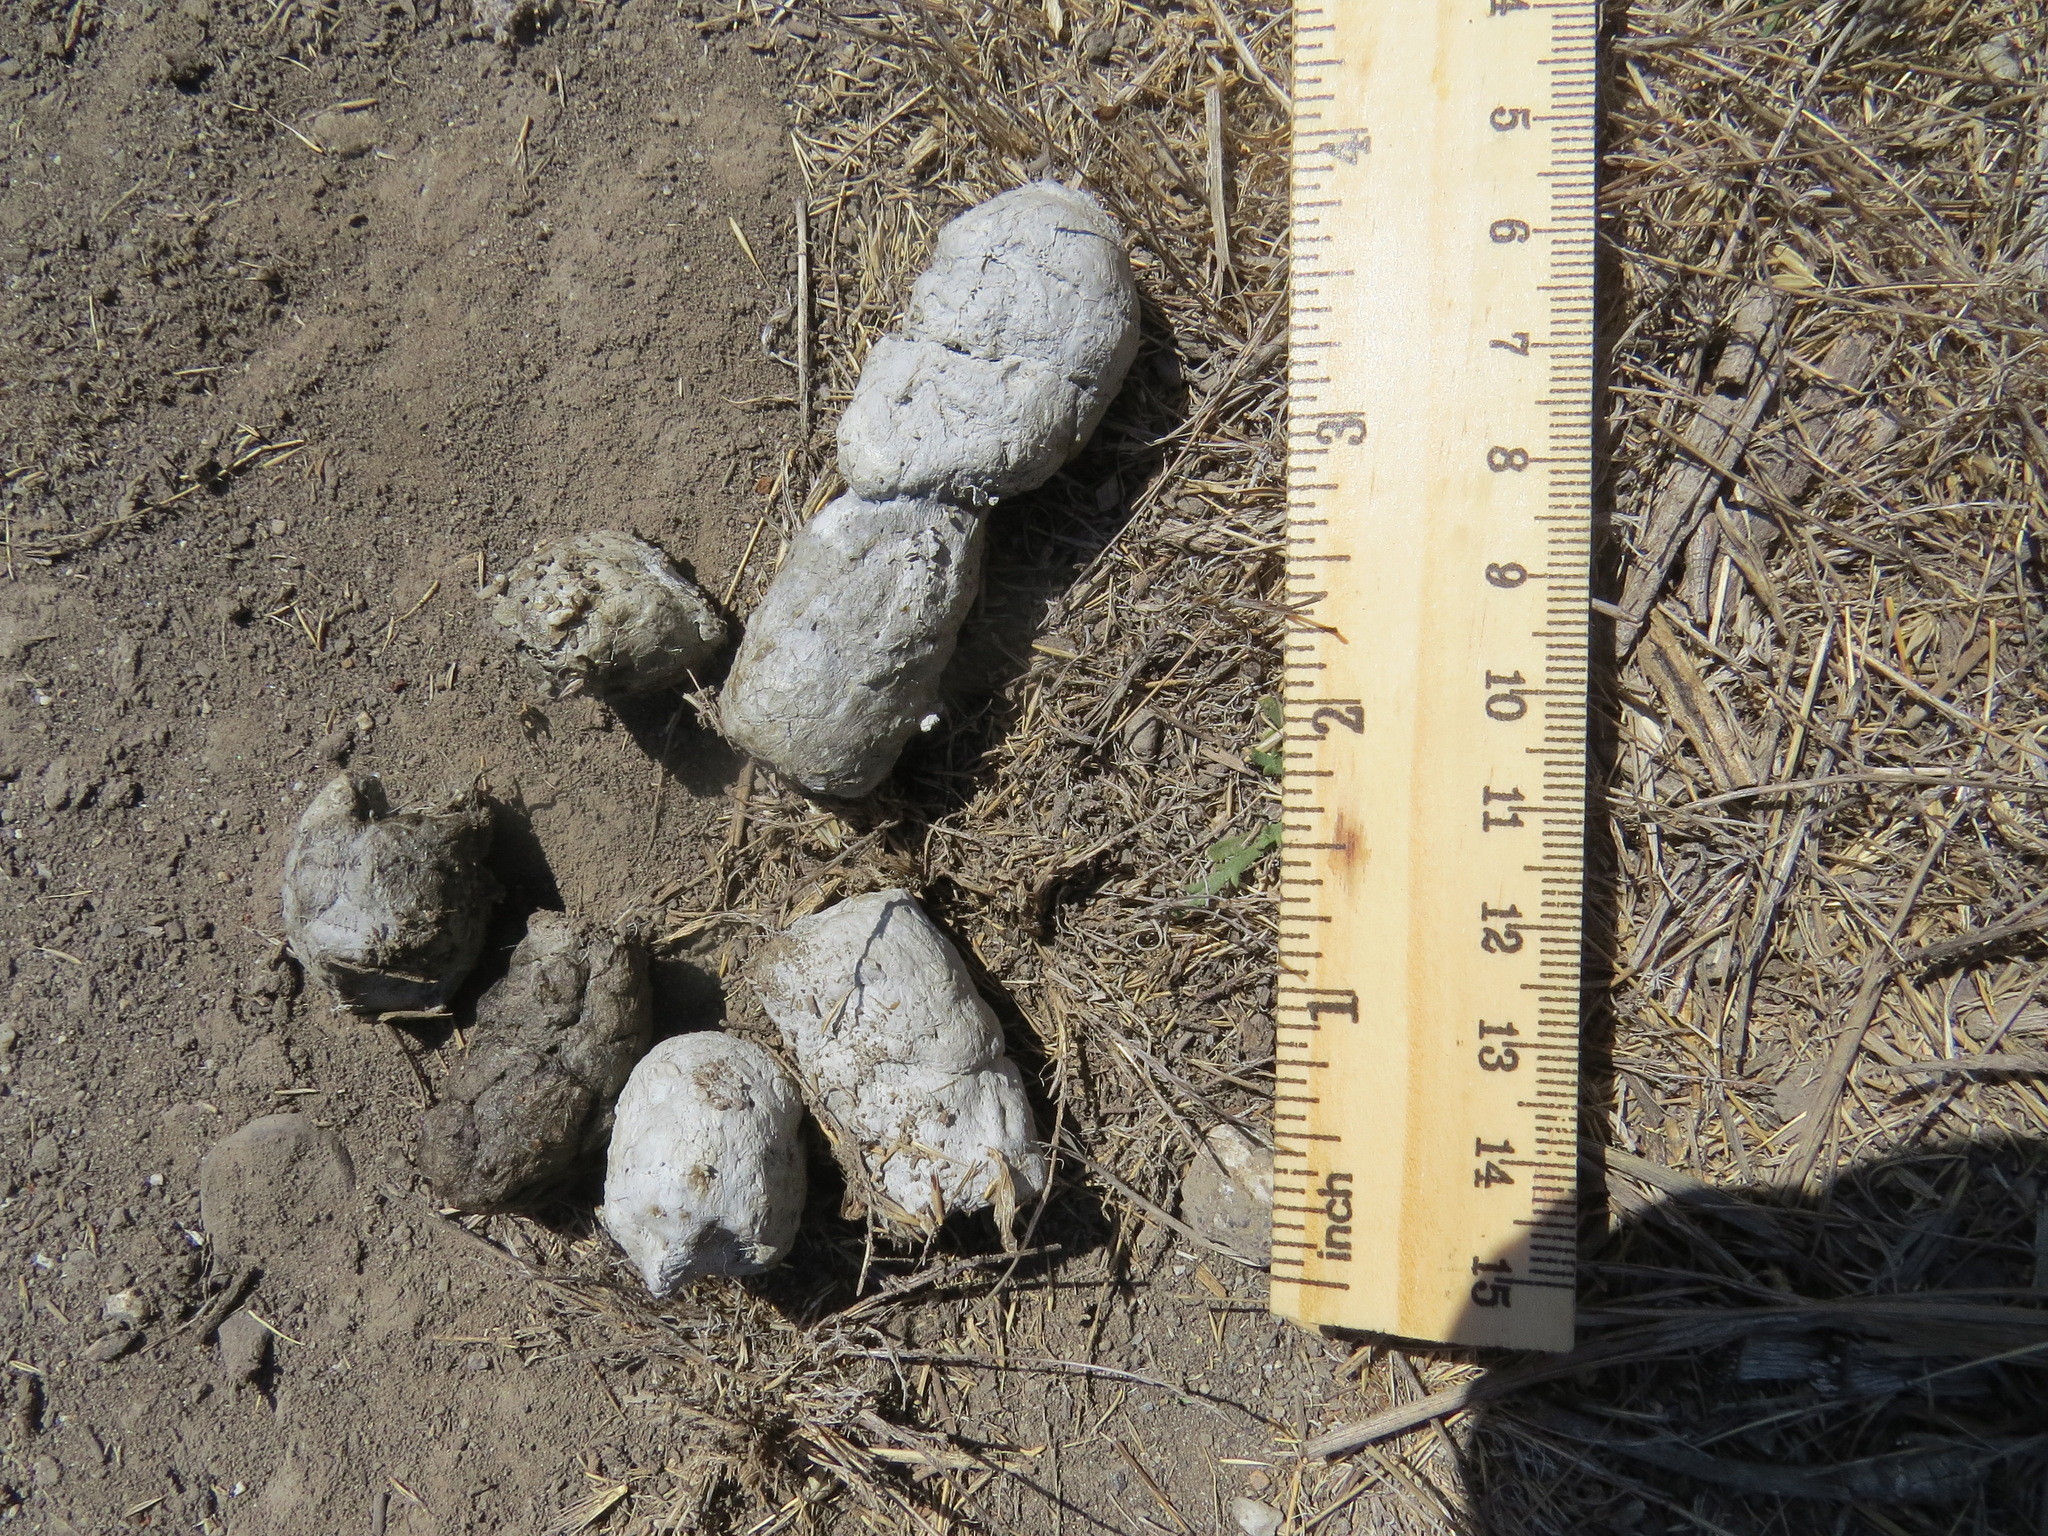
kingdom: Animalia
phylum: Chordata
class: Mammalia
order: Carnivora
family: Felidae
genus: Lynx
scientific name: Lynx rufus
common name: Bobcat
